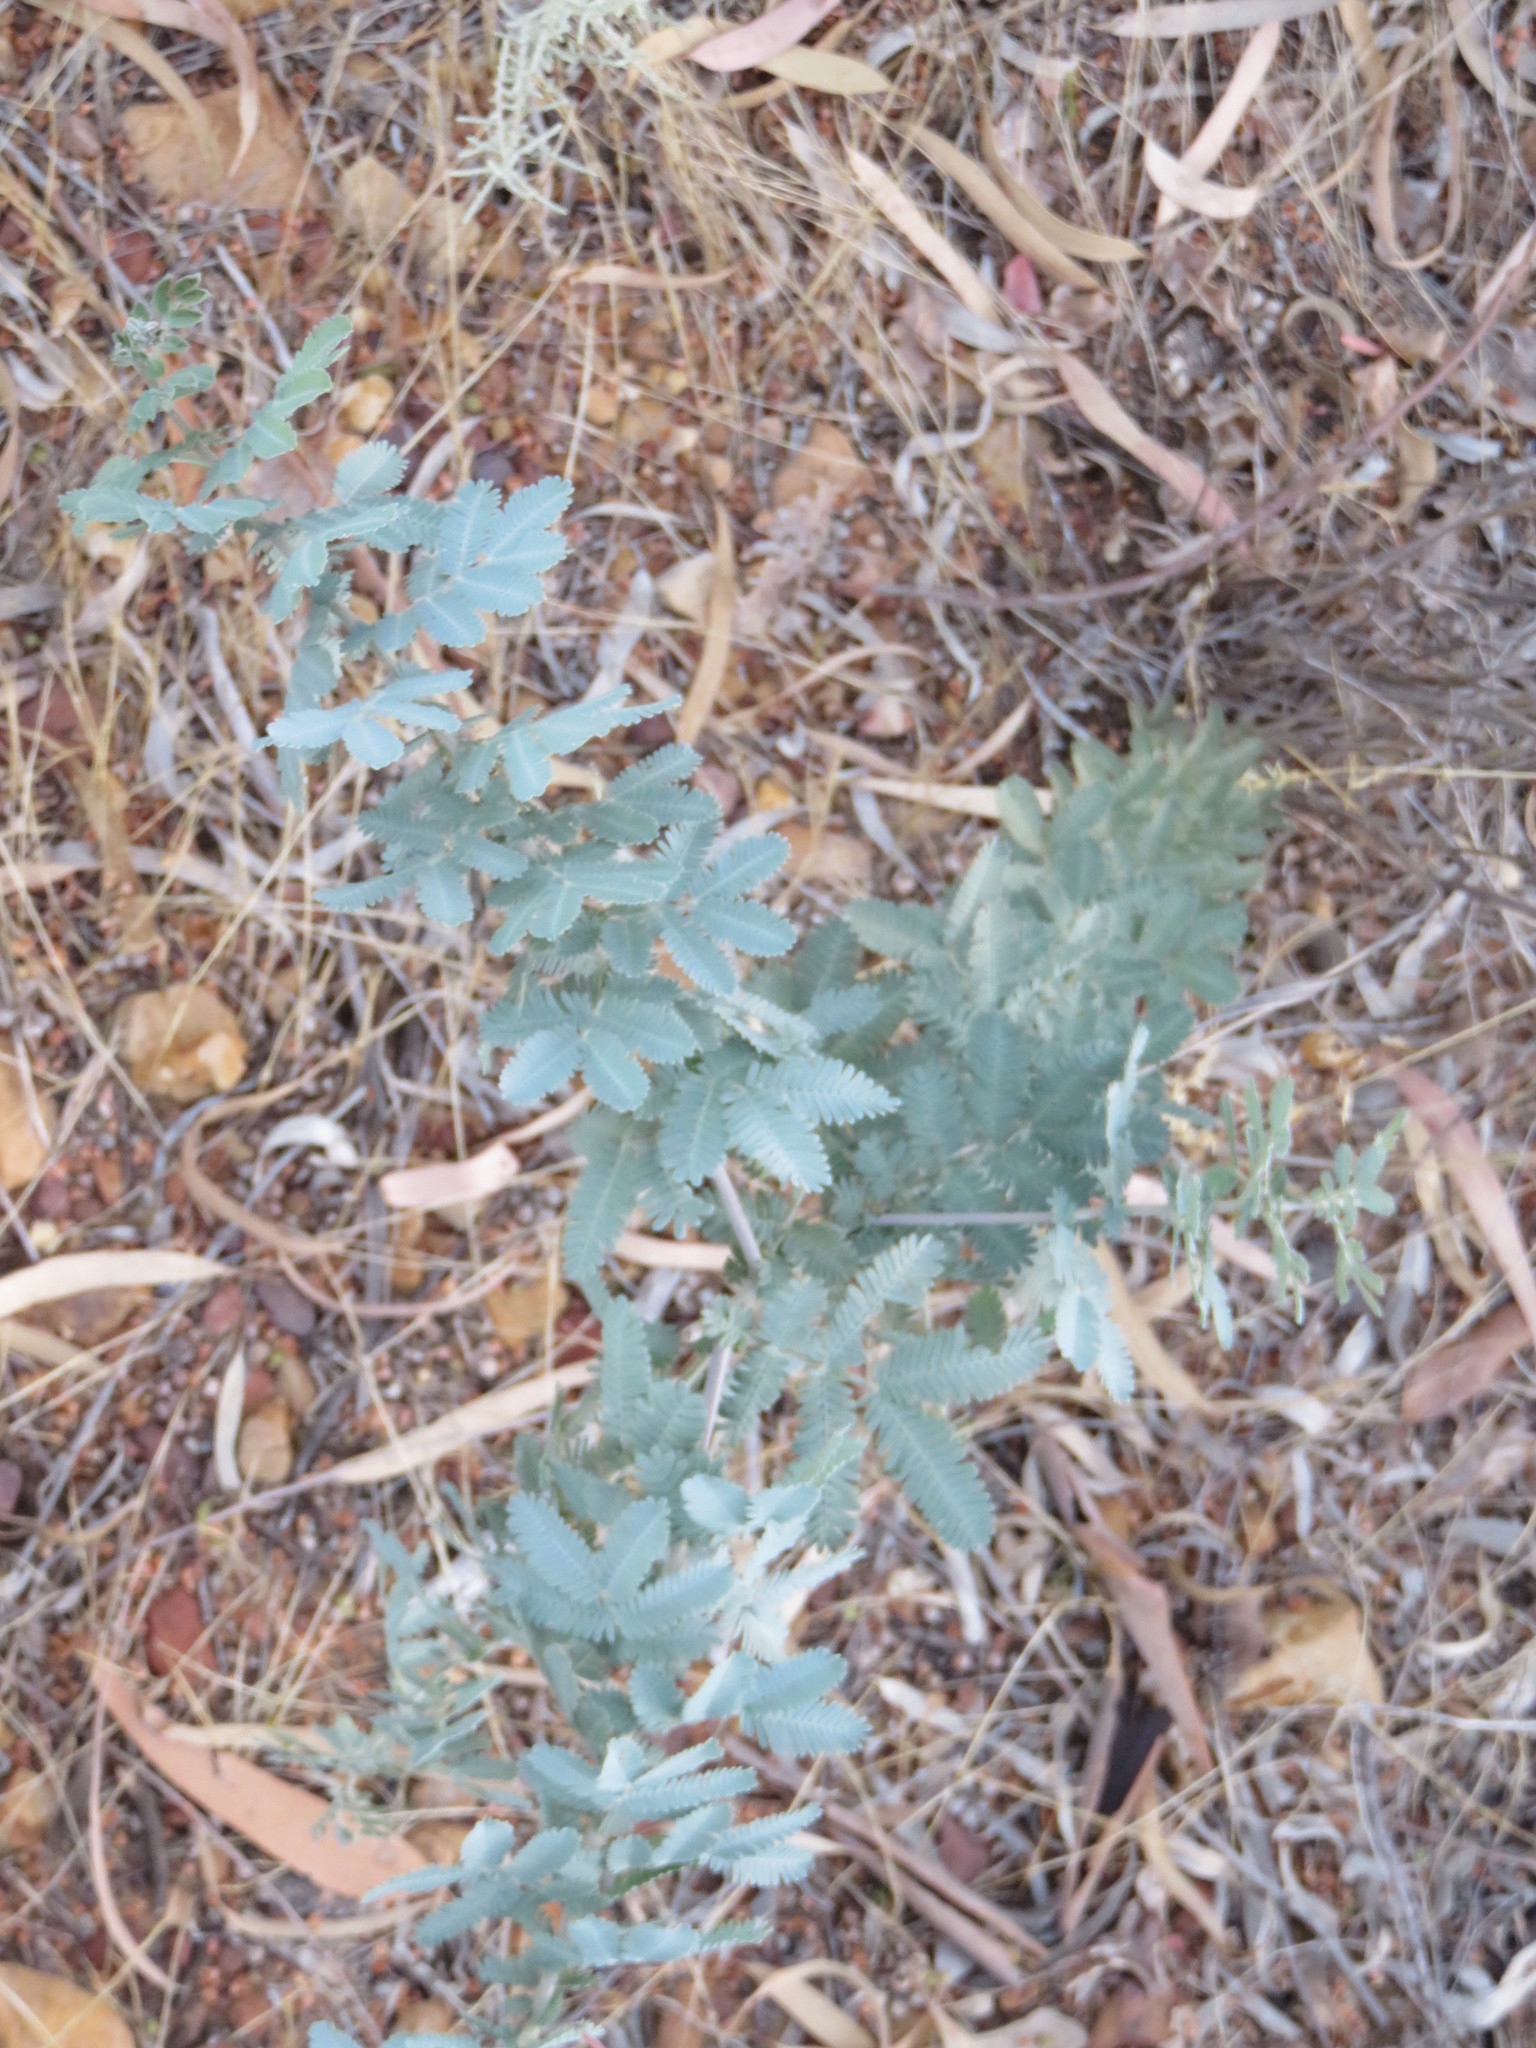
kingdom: Plantae
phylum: Tracheophyta
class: Magnoliopsida
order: Fabales
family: Fabaceae
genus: Acacia
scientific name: Acacia baileyana
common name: Cootamundra wattle
